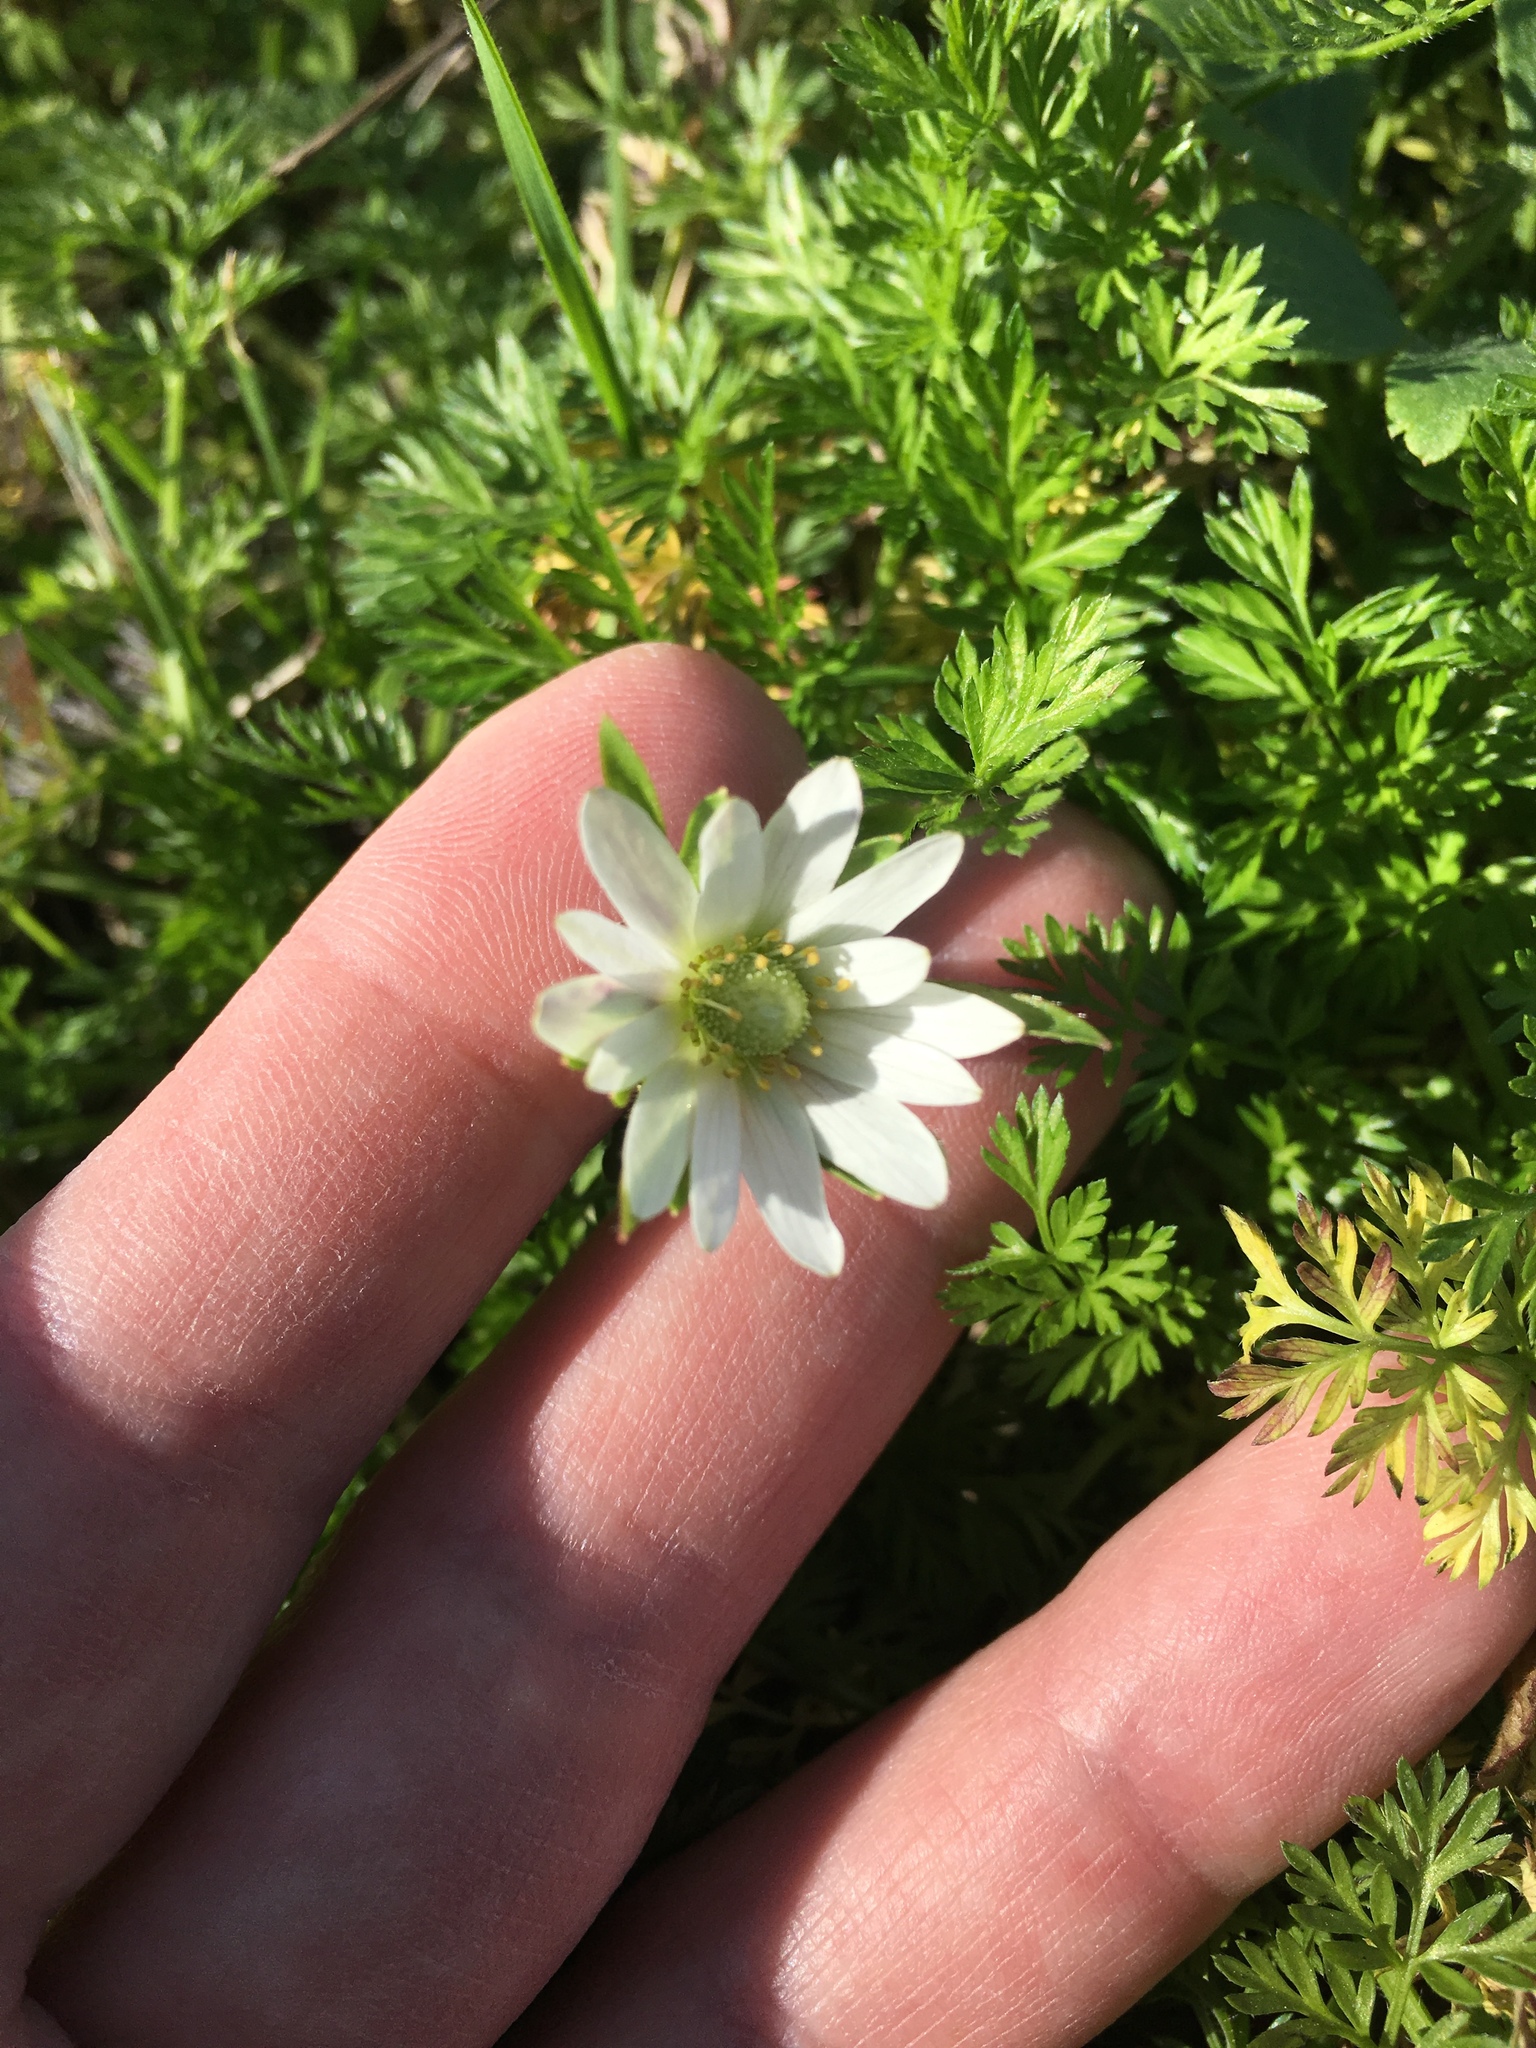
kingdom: Plantae
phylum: Tracheophyta
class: Magnoliopsida
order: Ranunculales
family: Ranunculaceae
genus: Anemone
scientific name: Anemone berlandieri
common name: Ten-petal anemone
